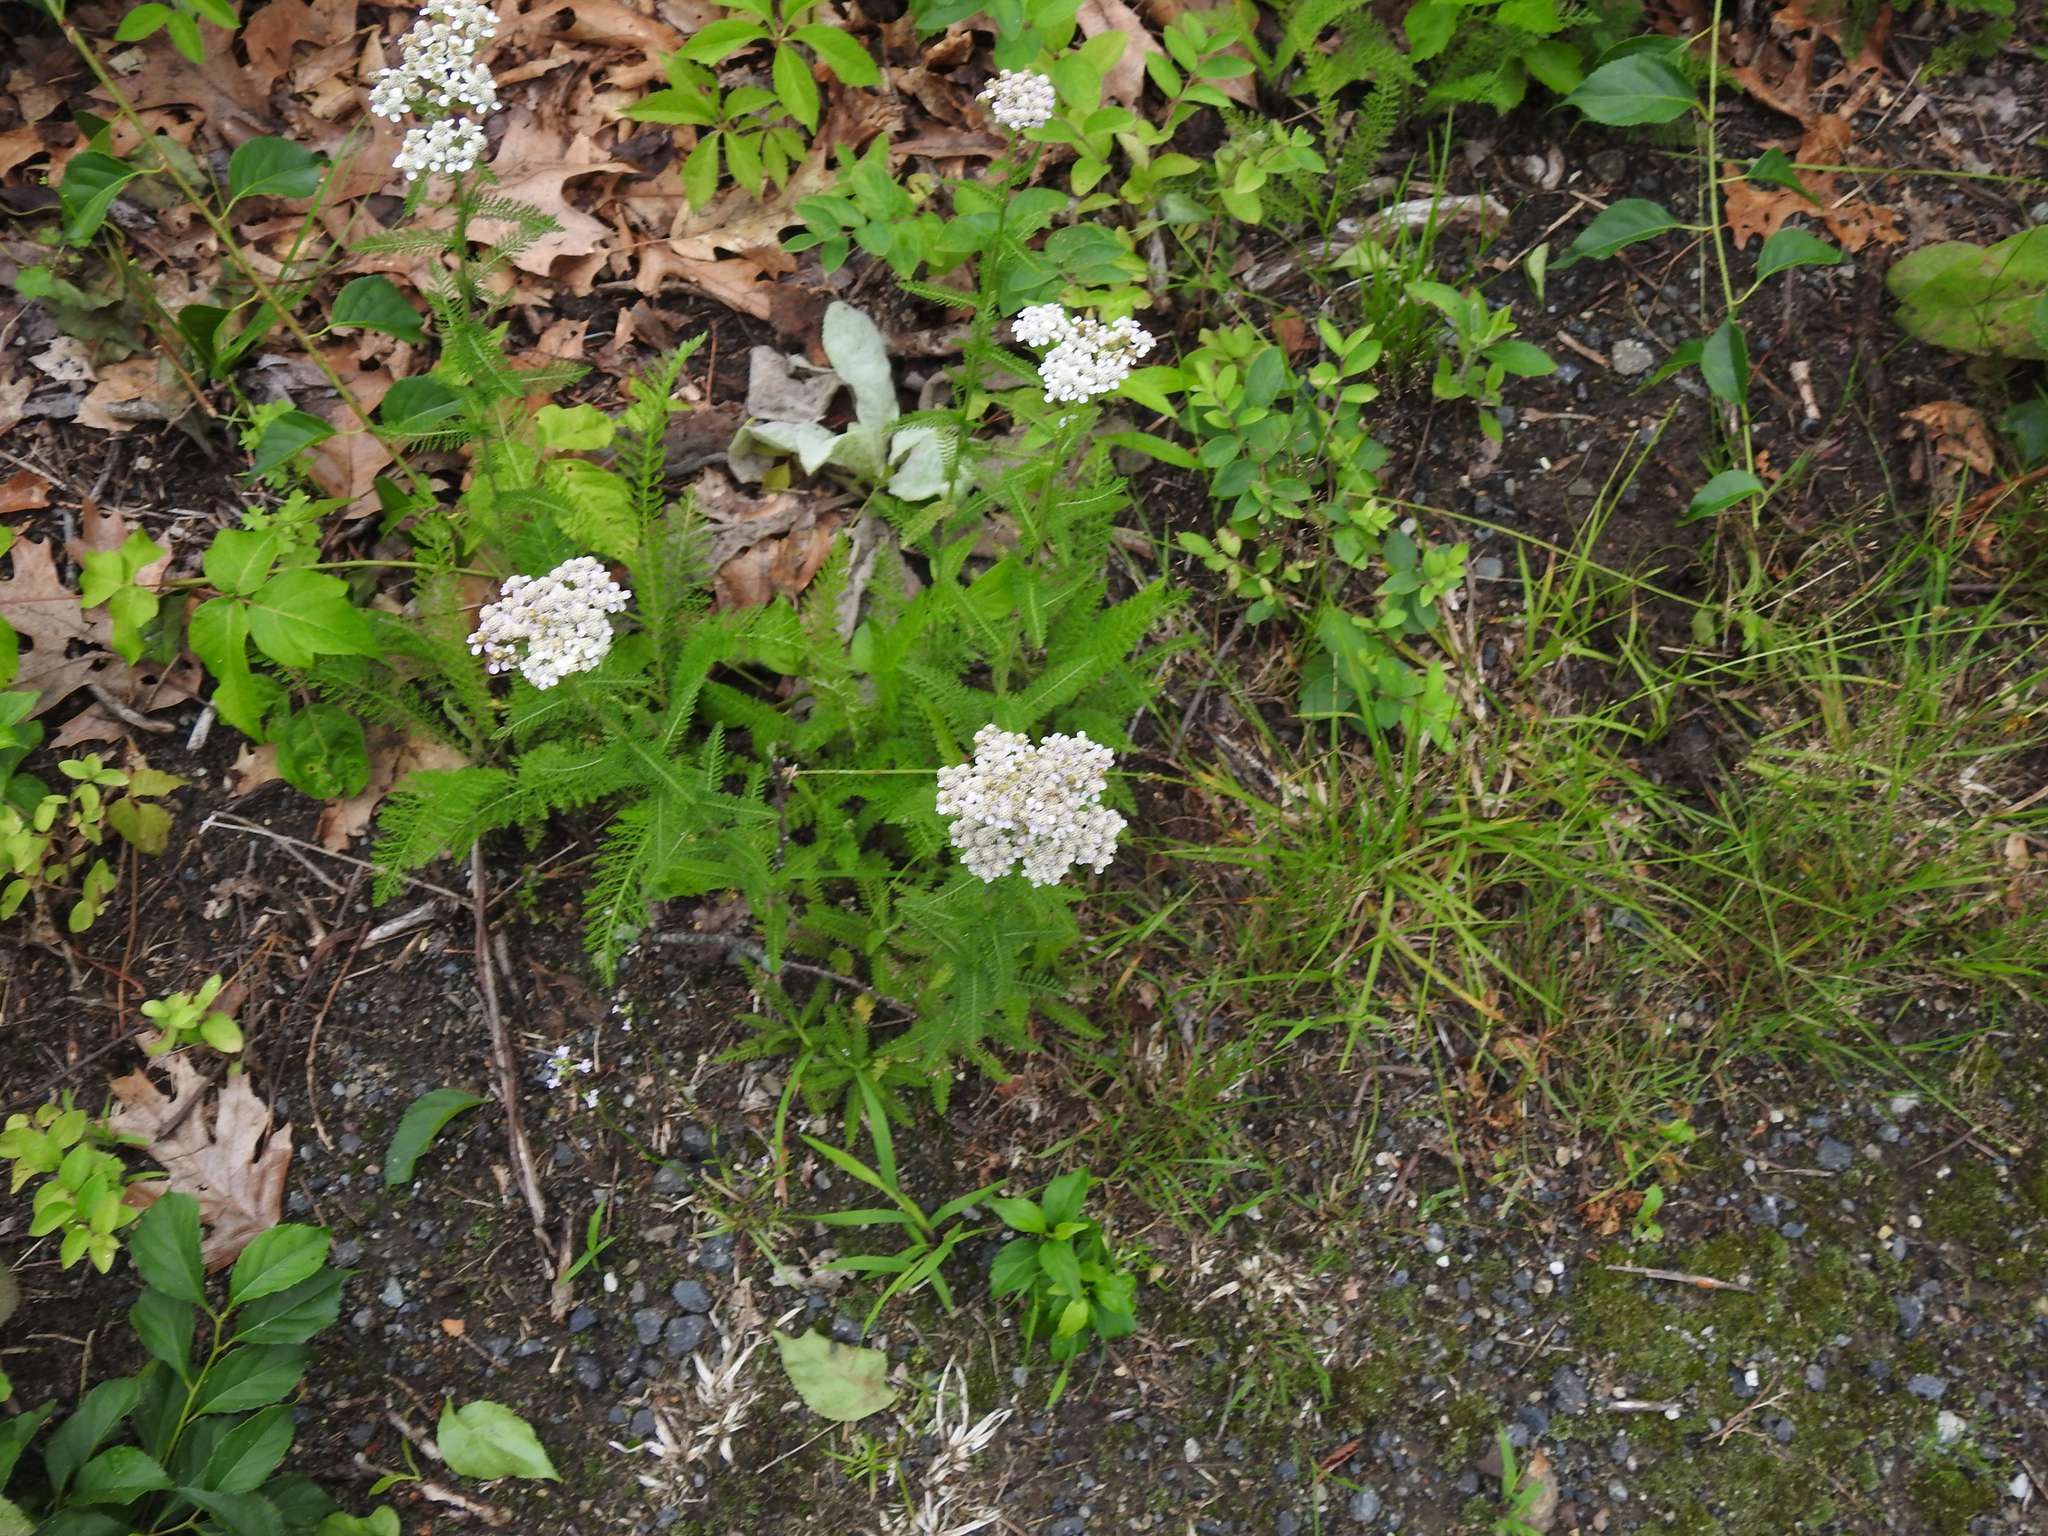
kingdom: Plantae
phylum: Tracheophyta
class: Magnoliopsida
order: Asterales
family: Asteraceae
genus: Achillea
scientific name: Achillea millefolium
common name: Yarrow
